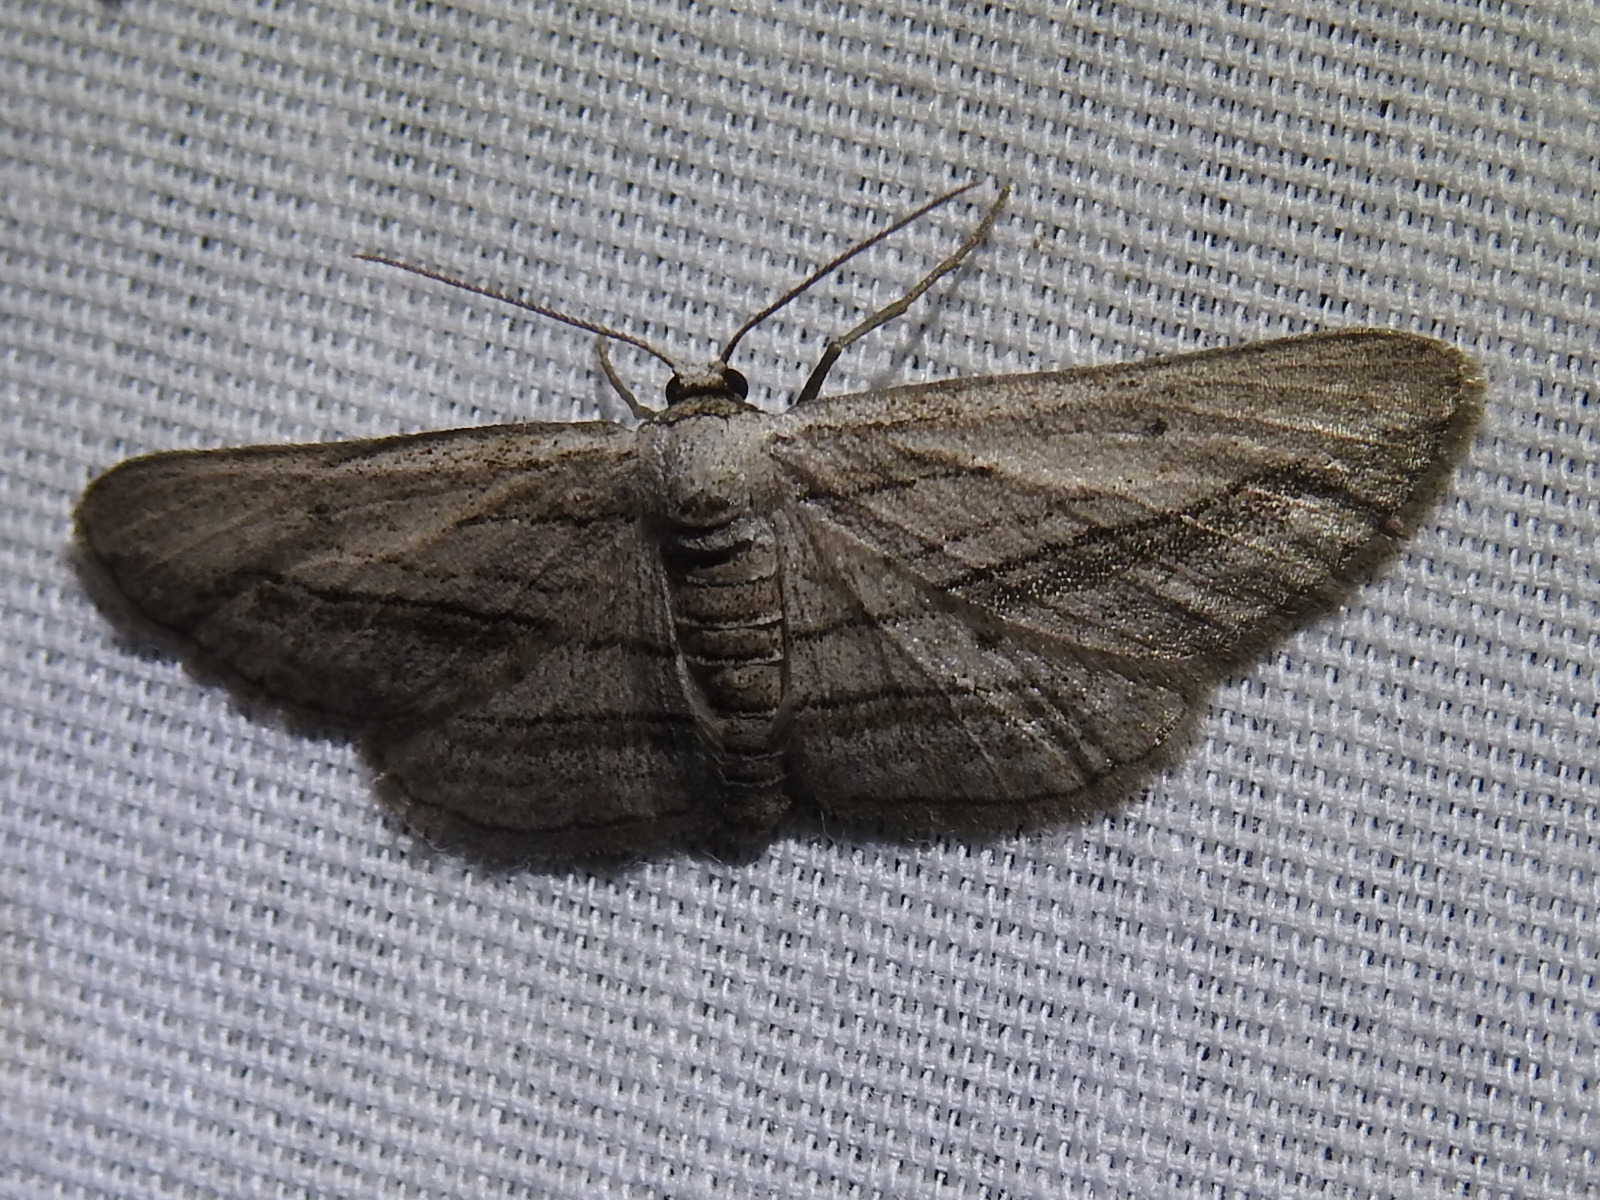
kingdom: Animalia
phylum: Arthropoda
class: Insecta
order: Lepidoptera
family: Geometridae
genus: Glena
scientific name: Glena quinquelinearia
